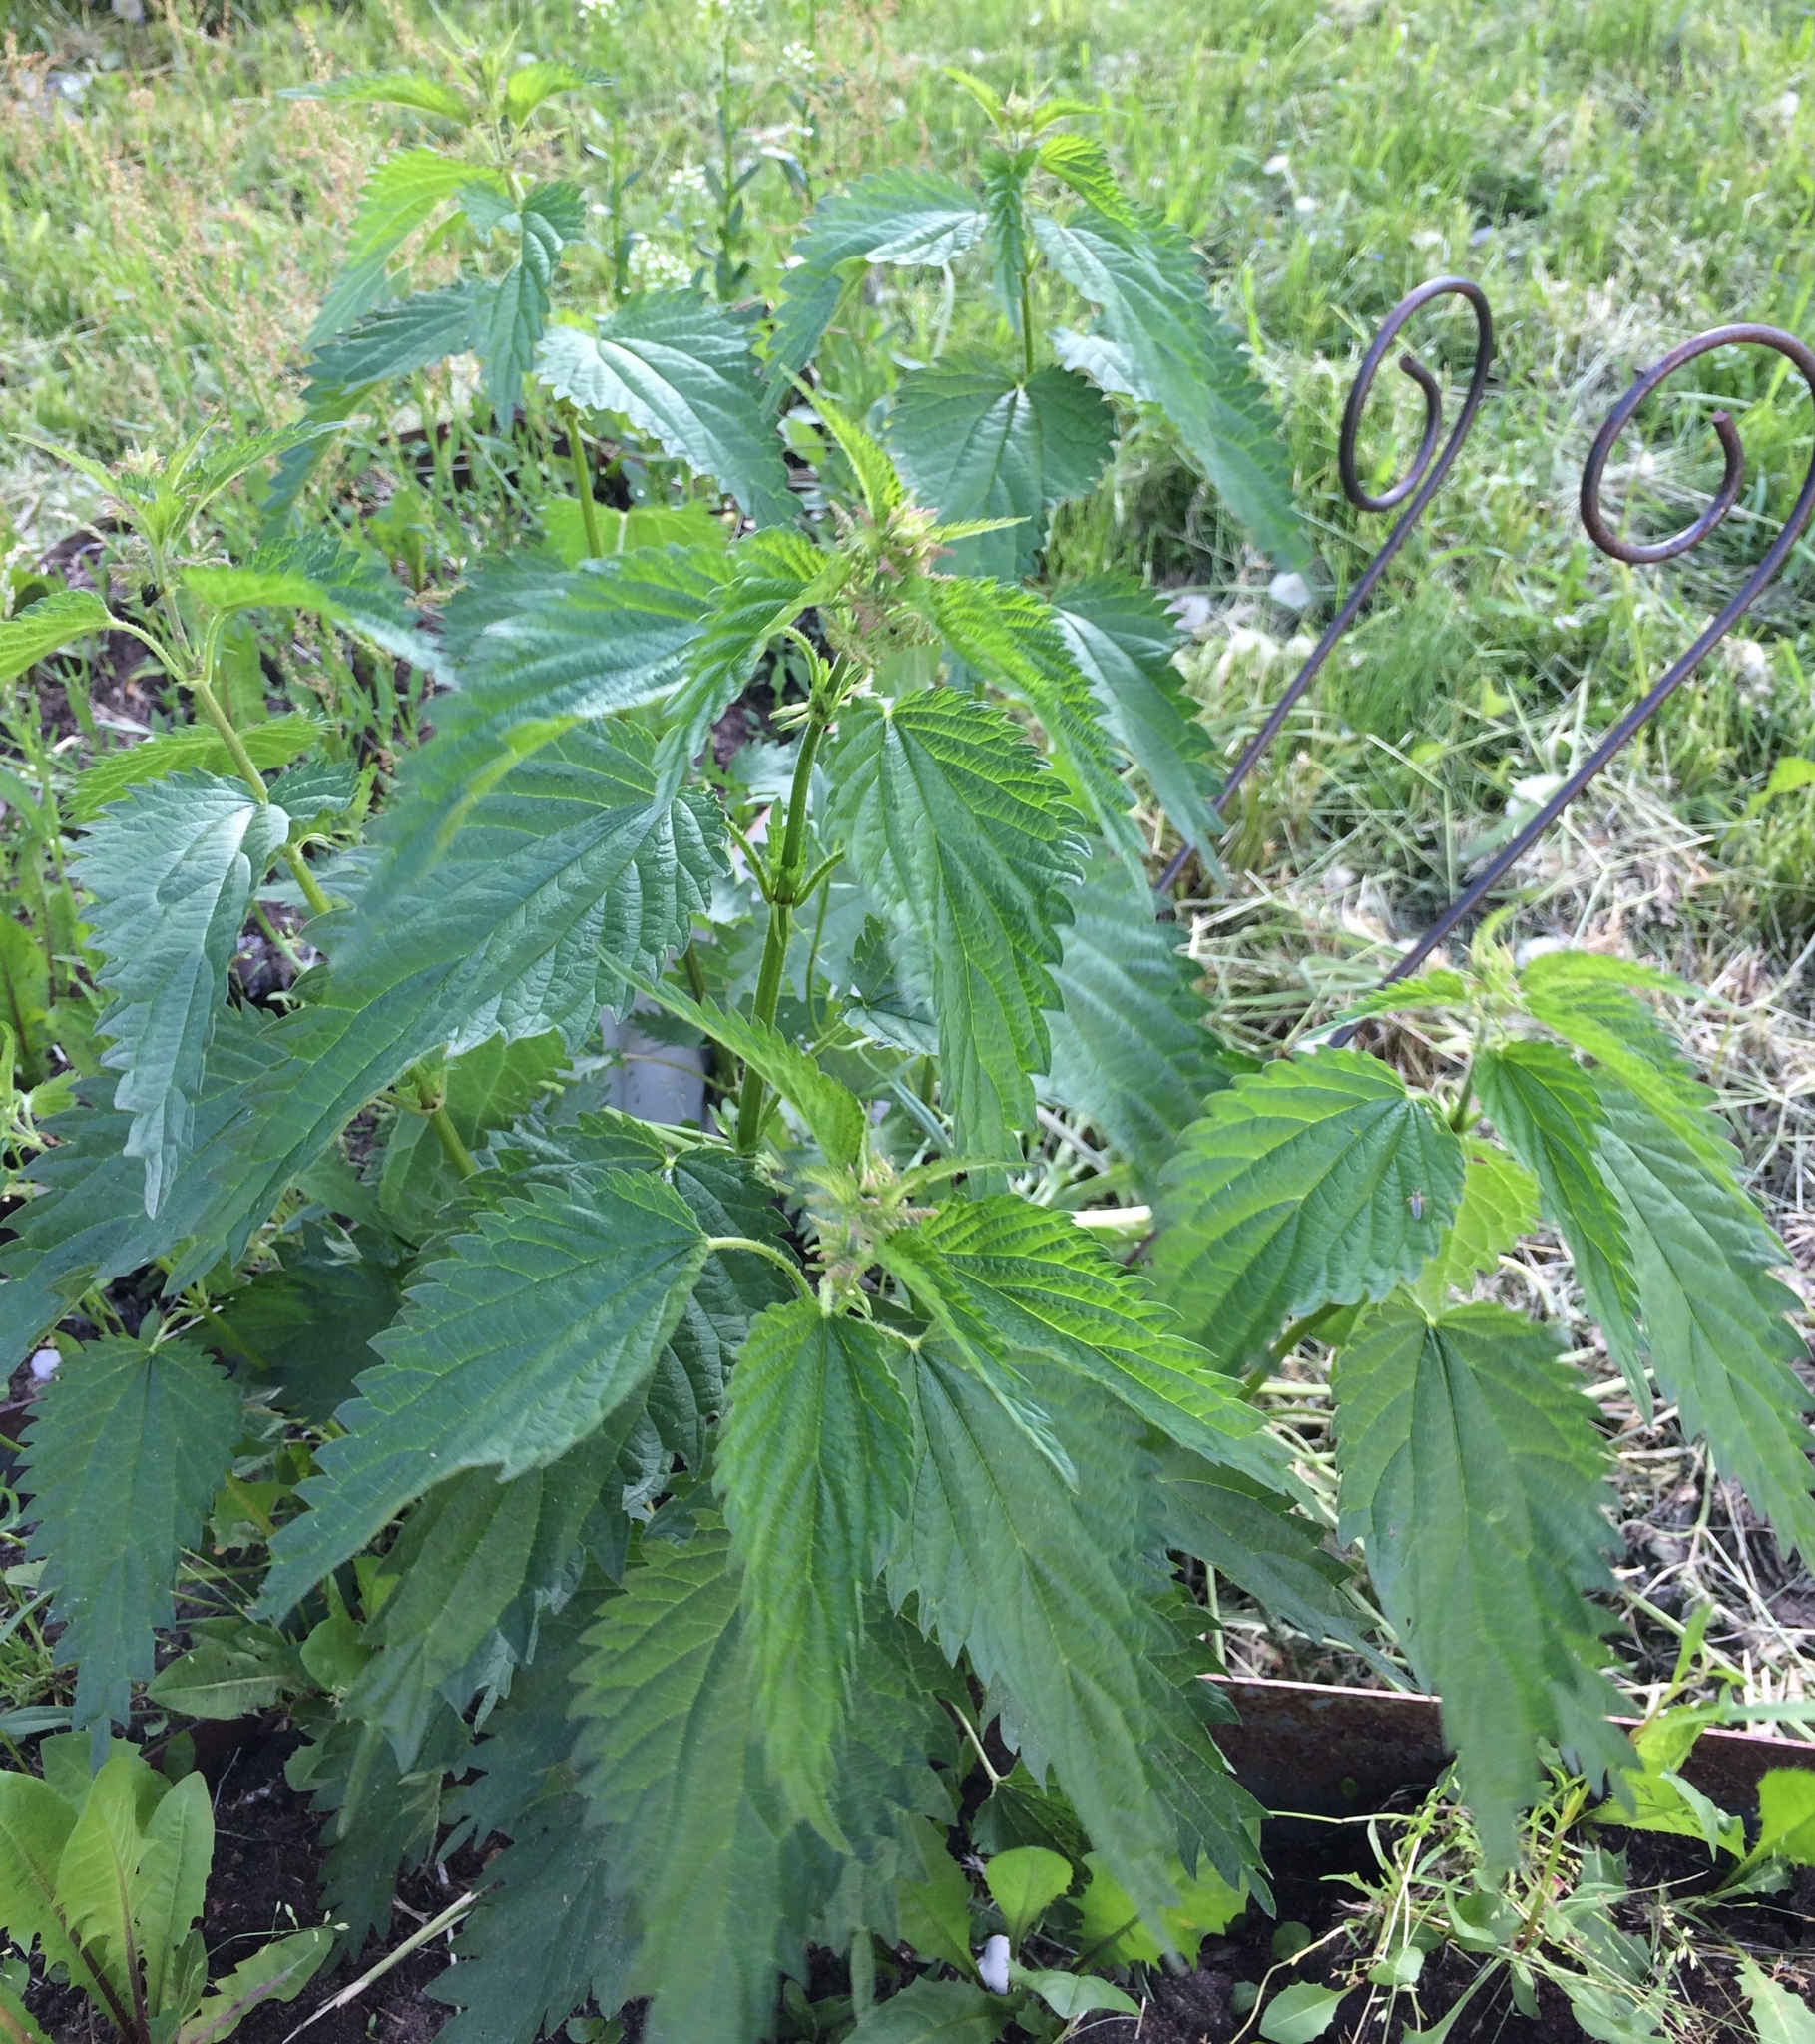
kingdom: Plantae
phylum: Tracheophyta
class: Magnoliopsida
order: Rosales
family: Urticaceae
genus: Urtica
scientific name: Urtica dioica
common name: Common nettle
